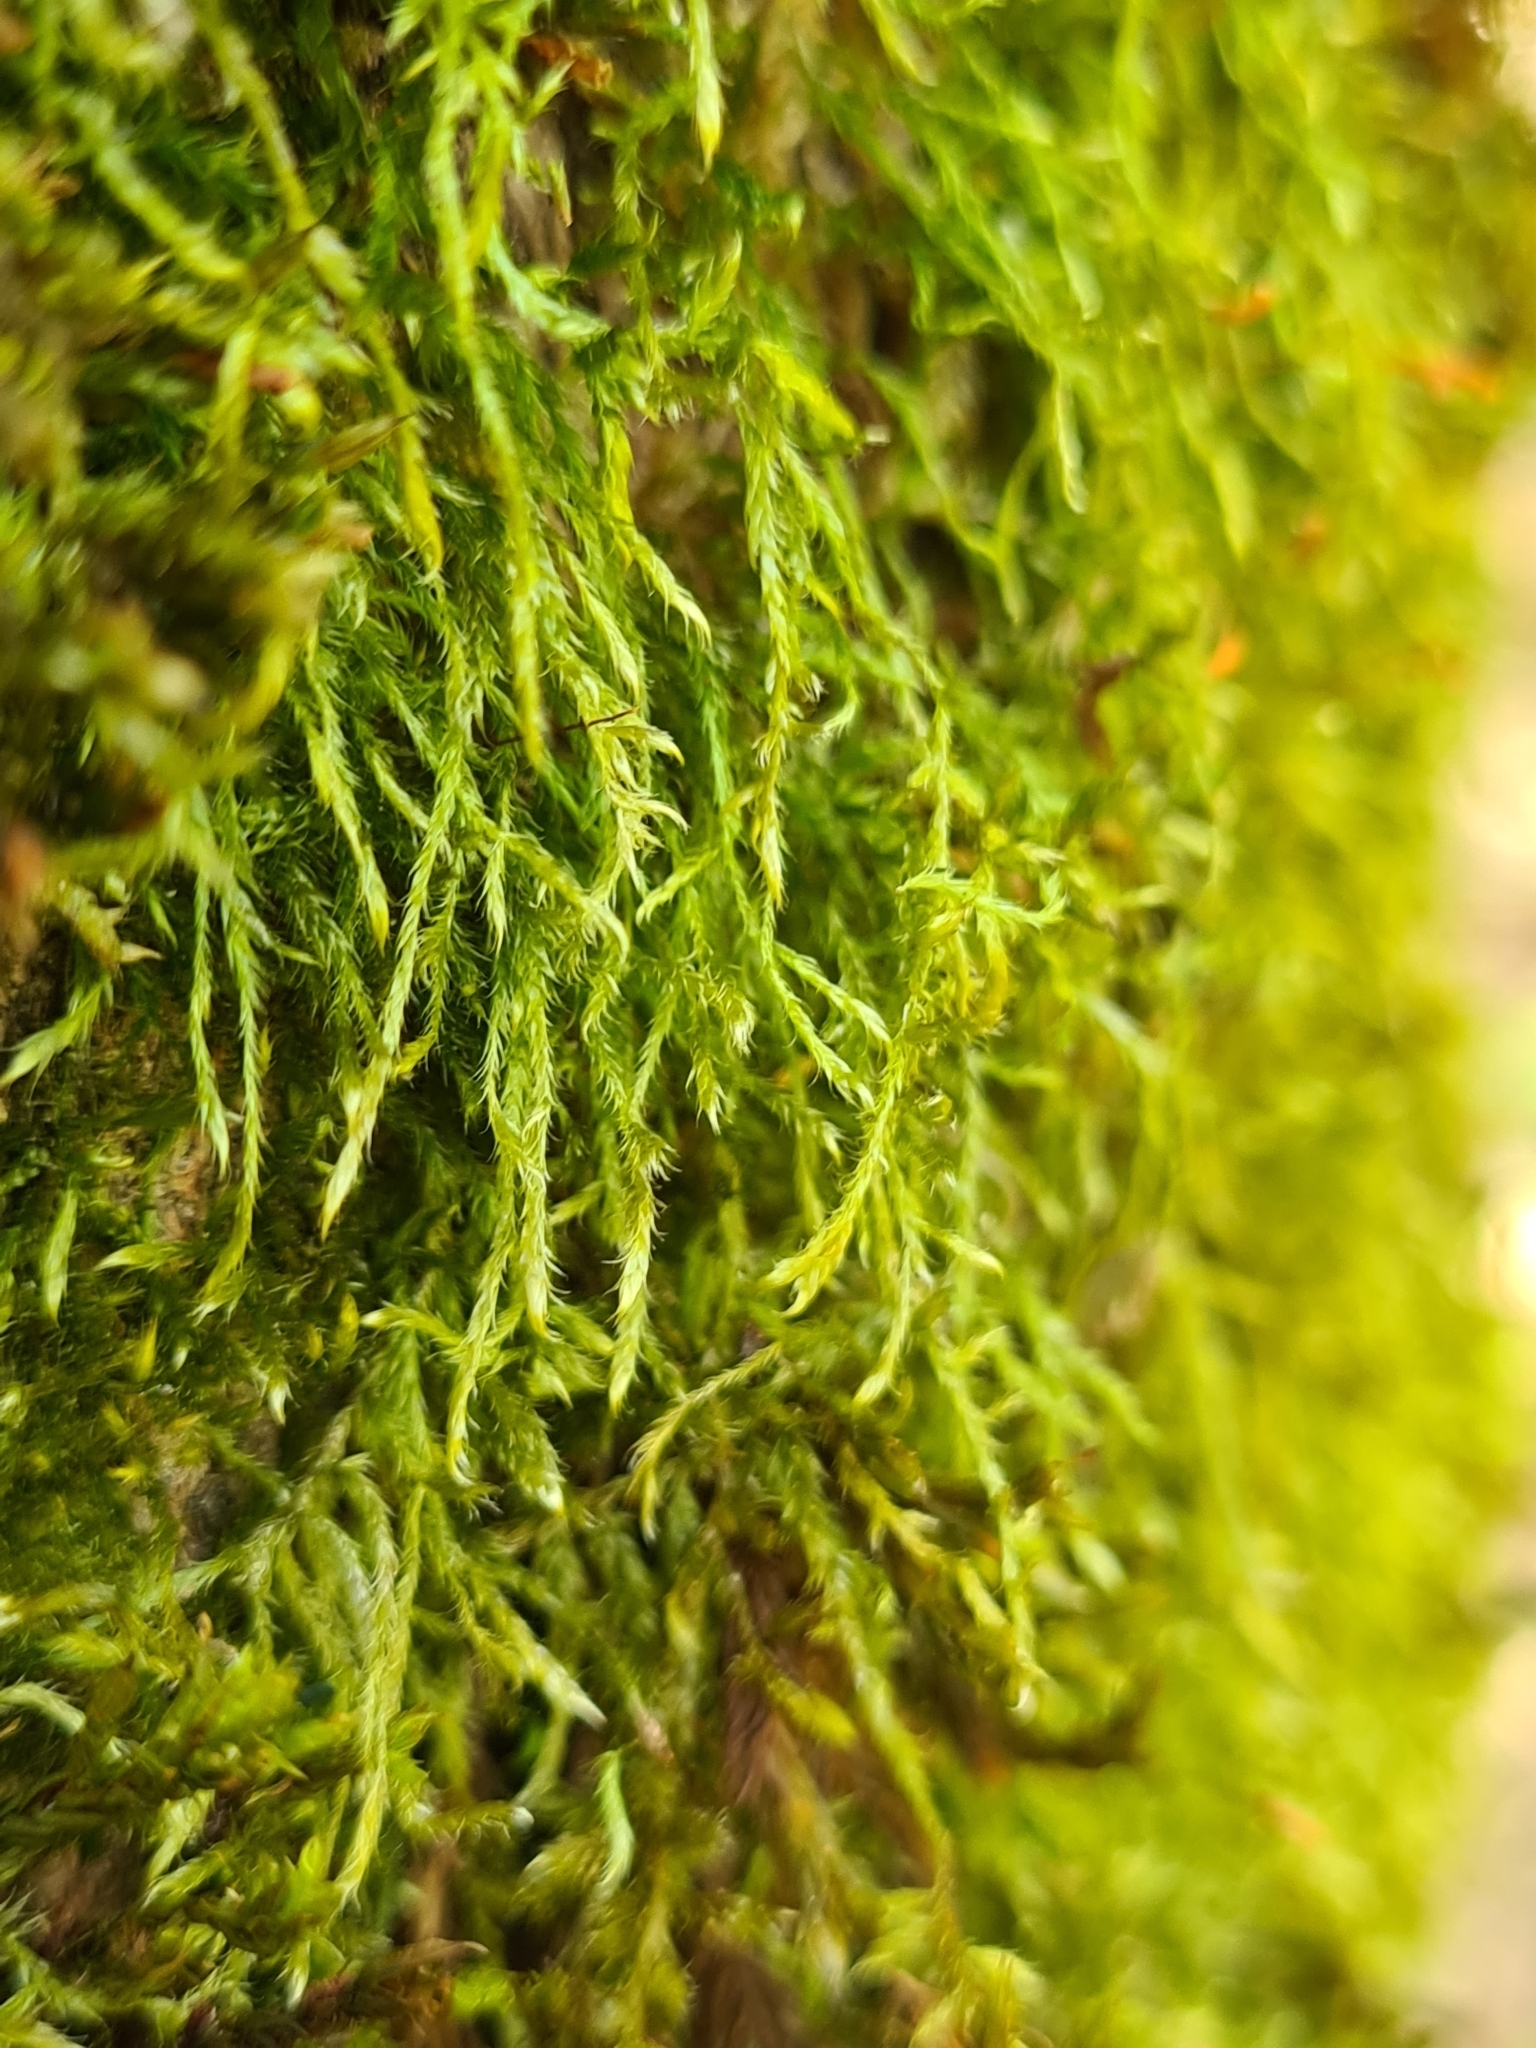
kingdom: Plantae
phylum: Bryophyta
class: Bryopsida
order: Hypnales
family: Hypnaceae
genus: Hypnum
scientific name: Hypnum cupressiforme
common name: Cypress-leaved plait-moss
